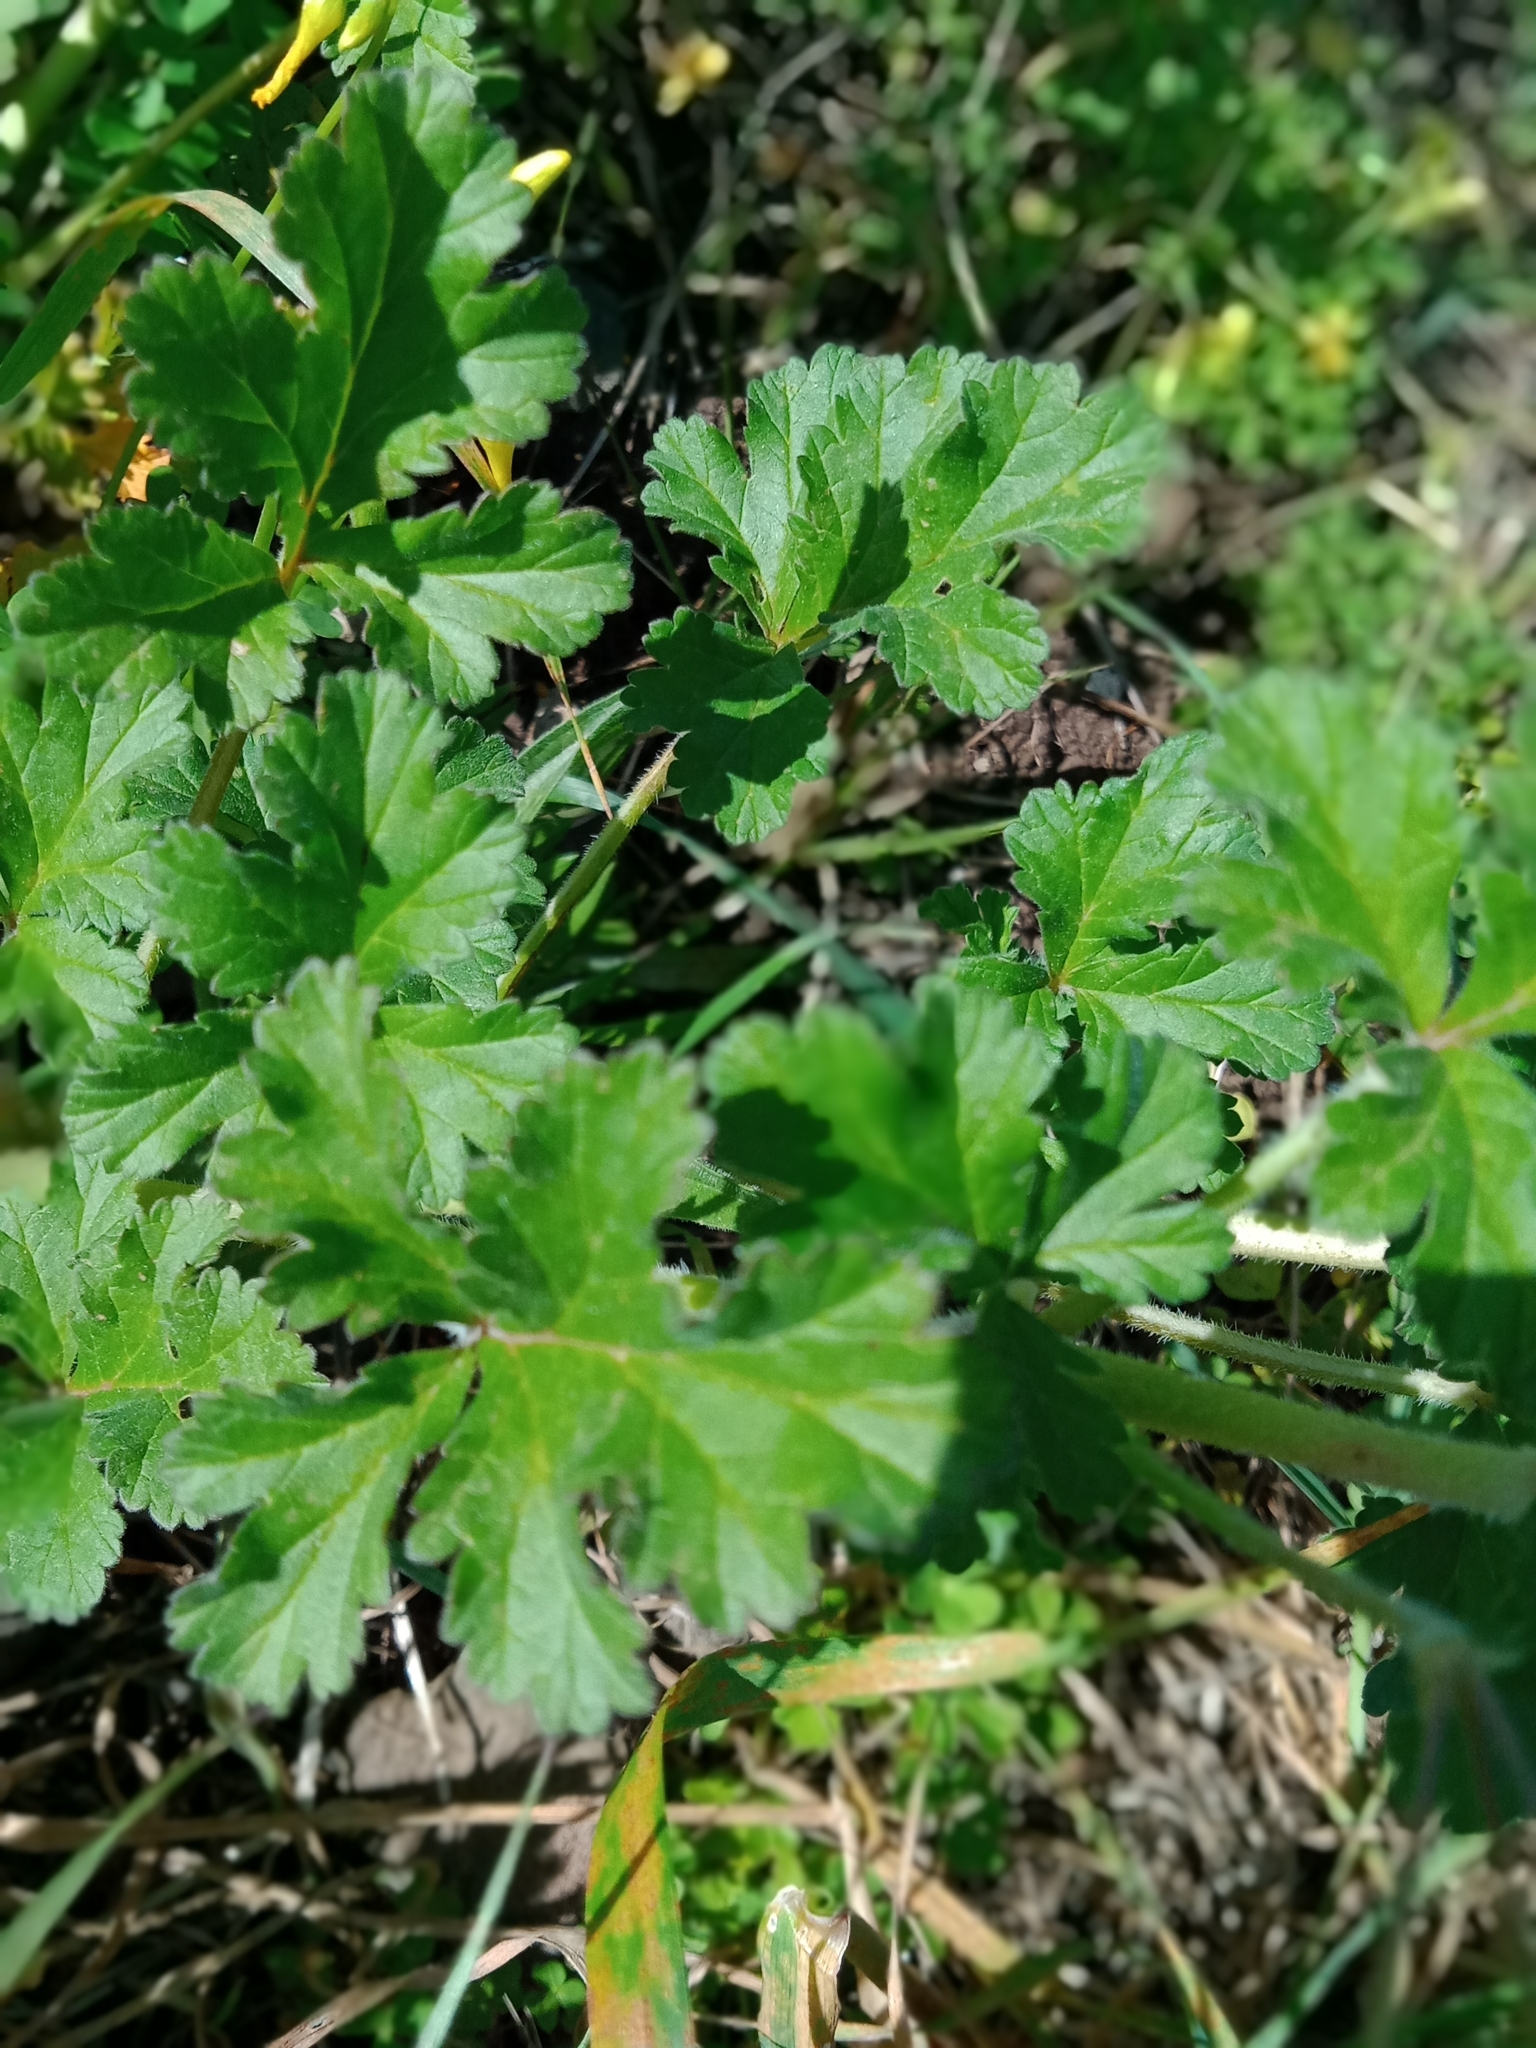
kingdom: Plantae
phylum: Tracheophyta
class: Magnoliopsida
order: Geraniales
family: Geraniaceae
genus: Erodium
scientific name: Erodium crinitum
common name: Eastern stork's-bill
